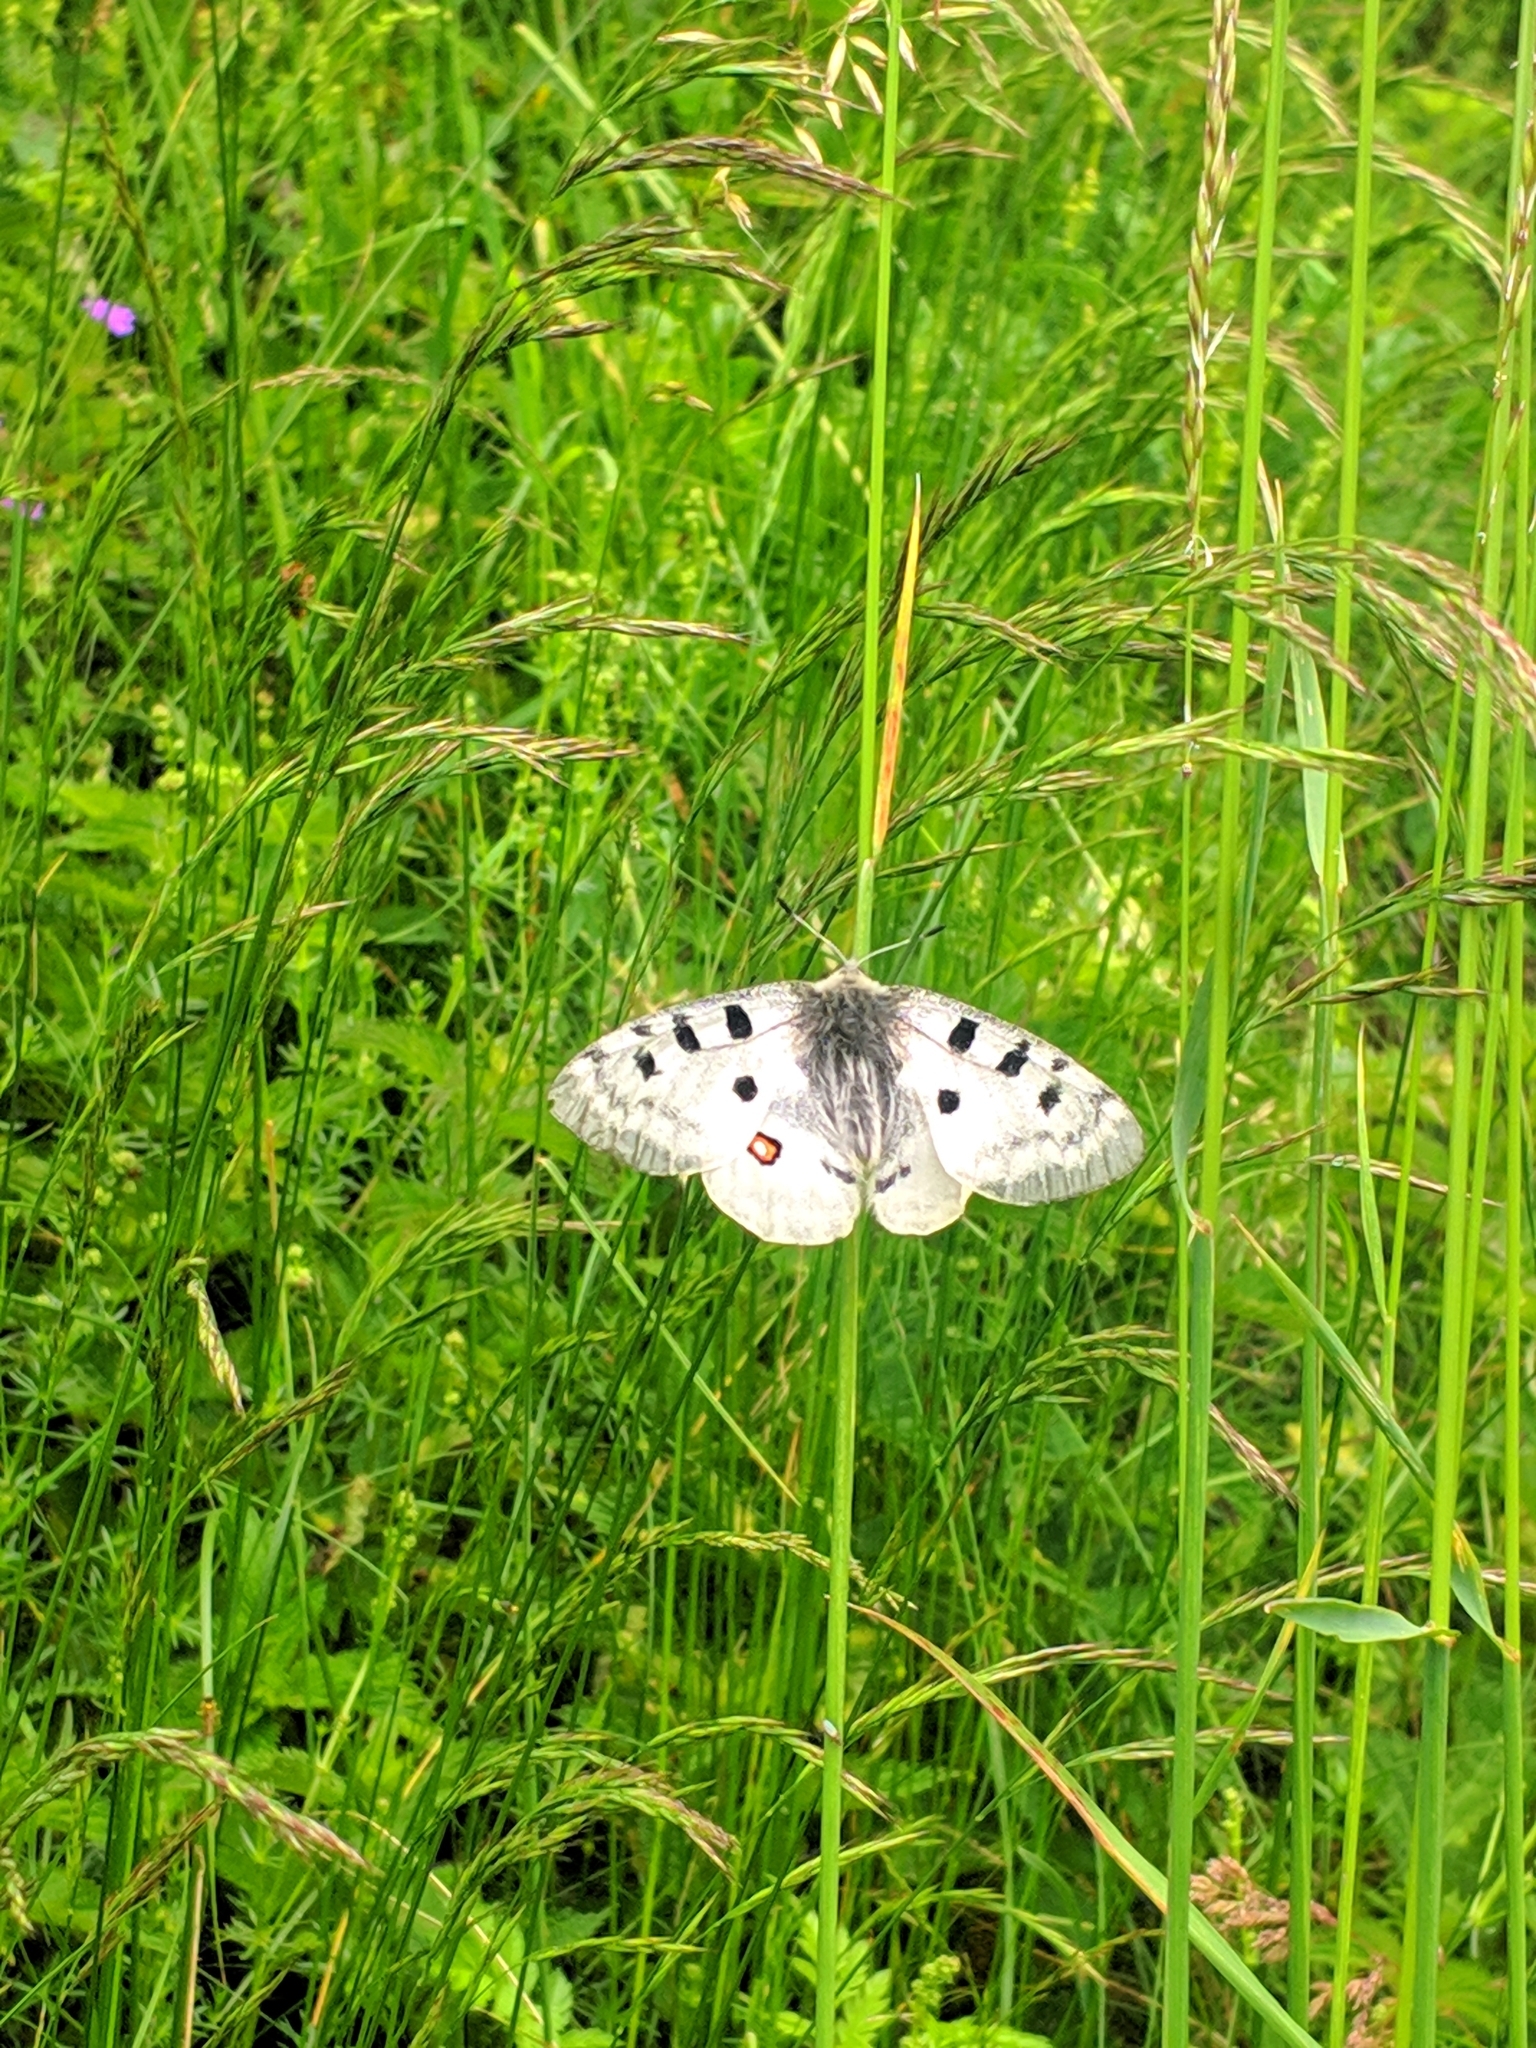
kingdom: Animalia
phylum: Arthropoda
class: Insecta
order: Lepidoptera
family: Papilionidae
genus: Parnassius
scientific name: Parnassius apollo
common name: Apollo
